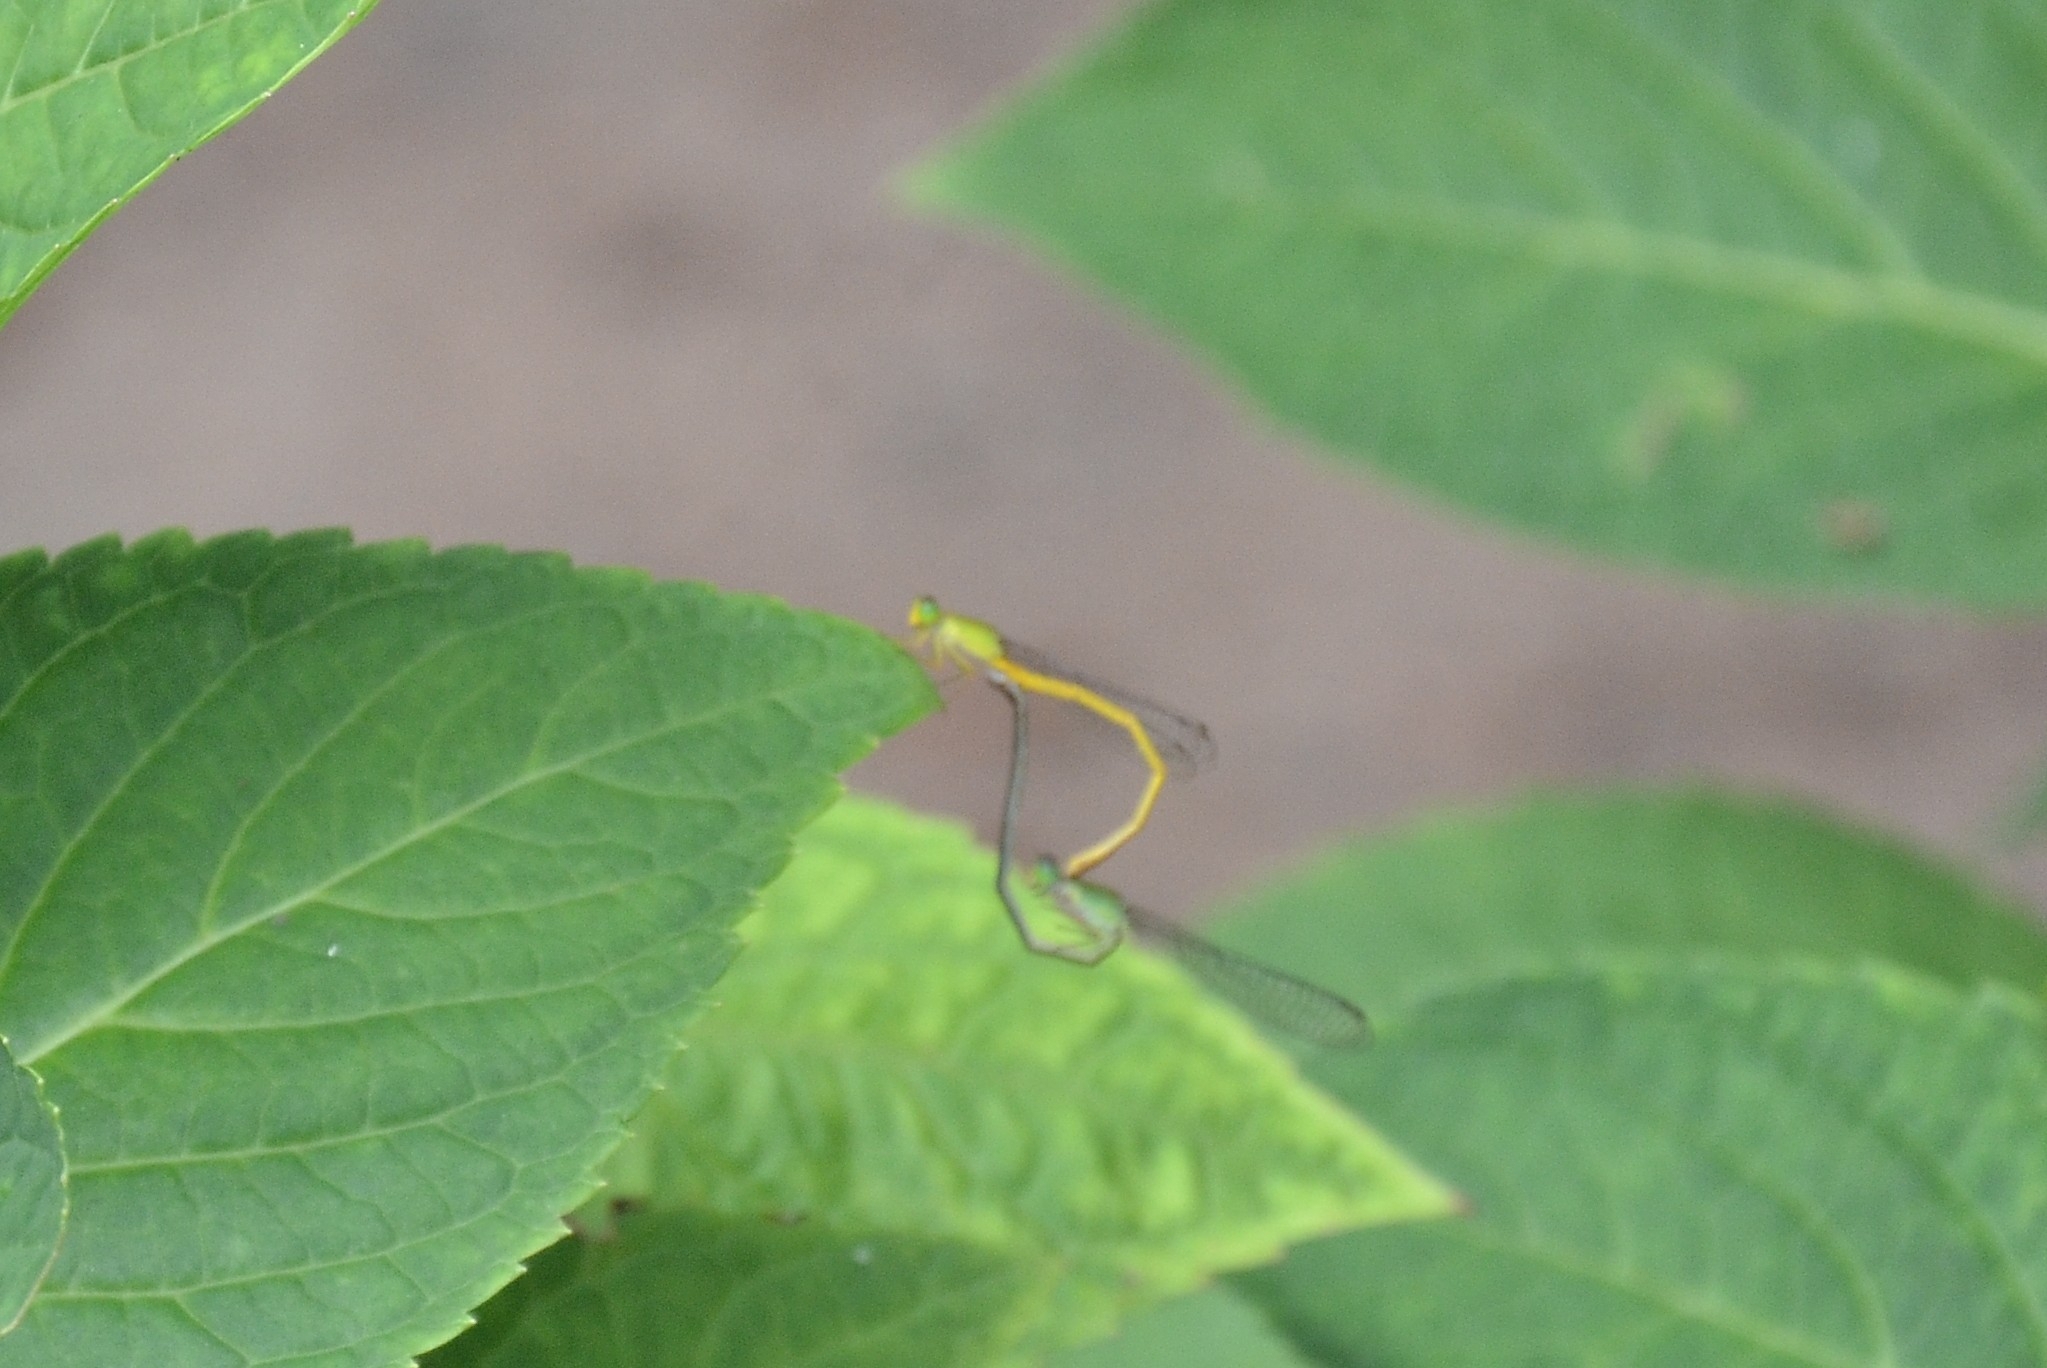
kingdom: Animalia
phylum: Arthropoda
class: Insecta
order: Odonata
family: Coenagrionidae
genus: Ceriagrion
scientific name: Ceriagrion coromandelianum
